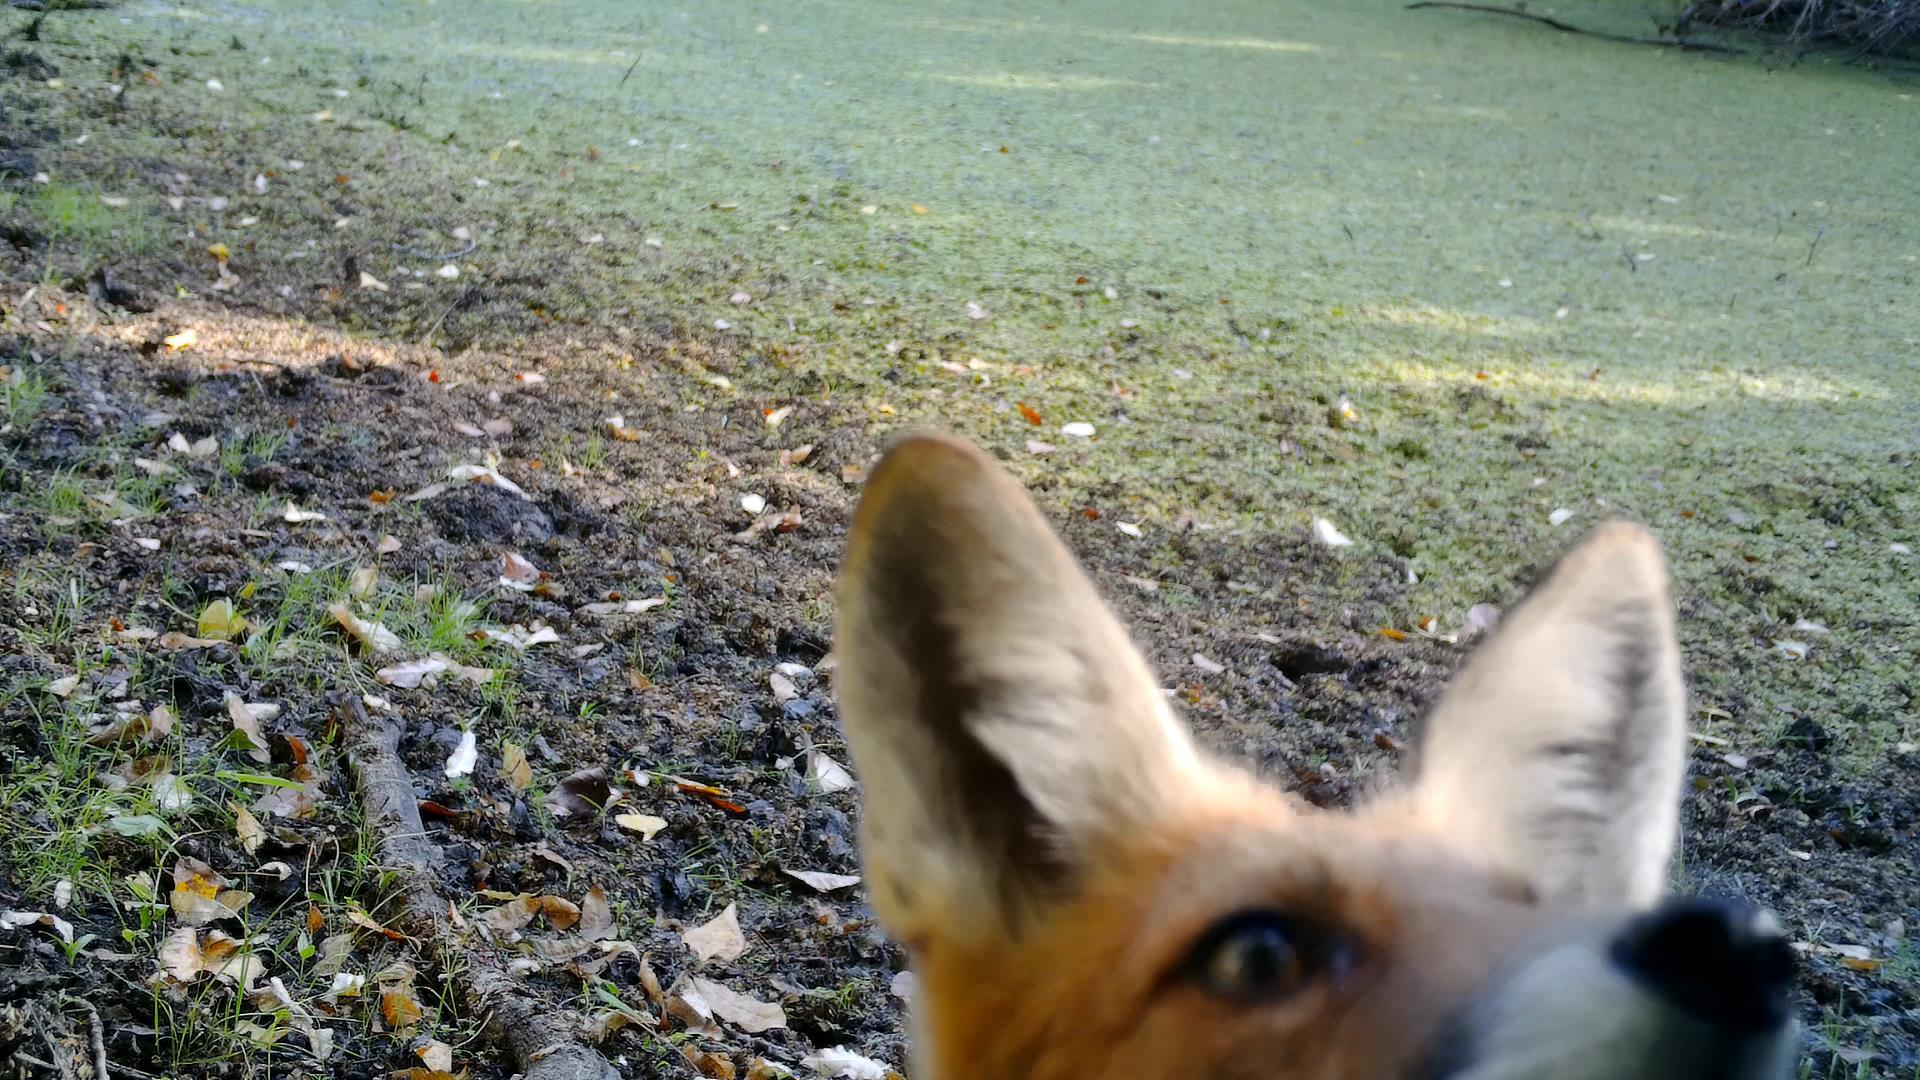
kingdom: Animalia
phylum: Chordata
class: Mammalia
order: Carnivora
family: Canidae
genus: Vulpes
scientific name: Vulpes vulpes
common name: Red fox
